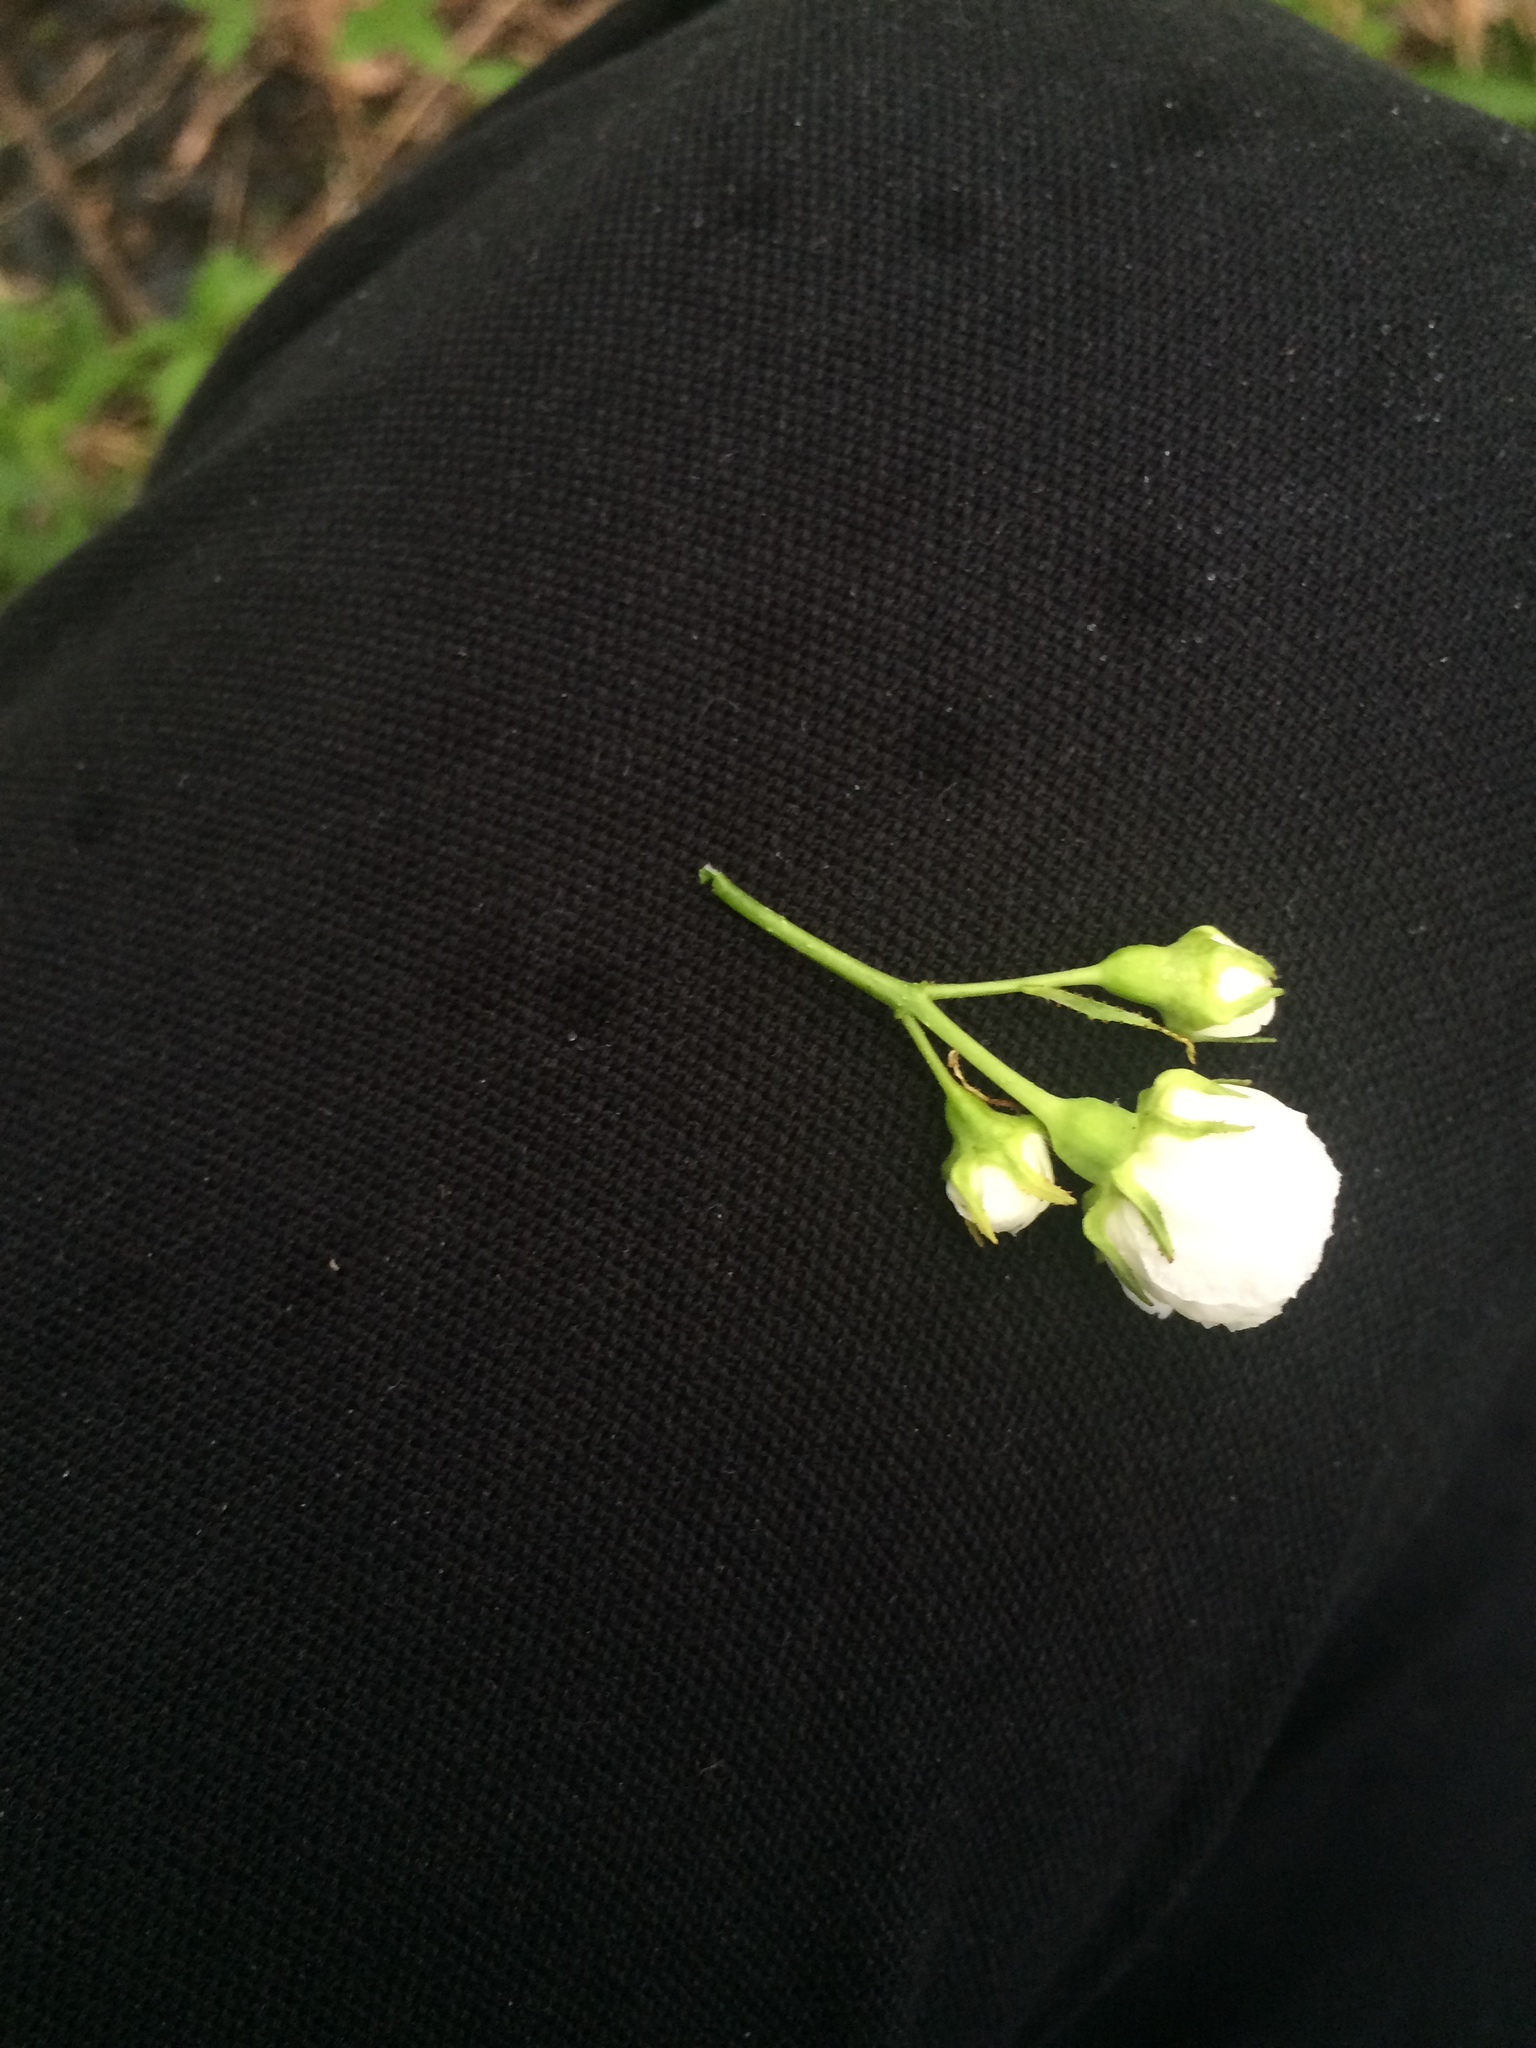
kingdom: Plantae
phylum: Tracheophyta
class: Magnoliopsida
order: Rosales
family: Rosaceae
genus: Crataegus
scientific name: Crataegus chrysocarpa
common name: Fire-berry hawthorn
